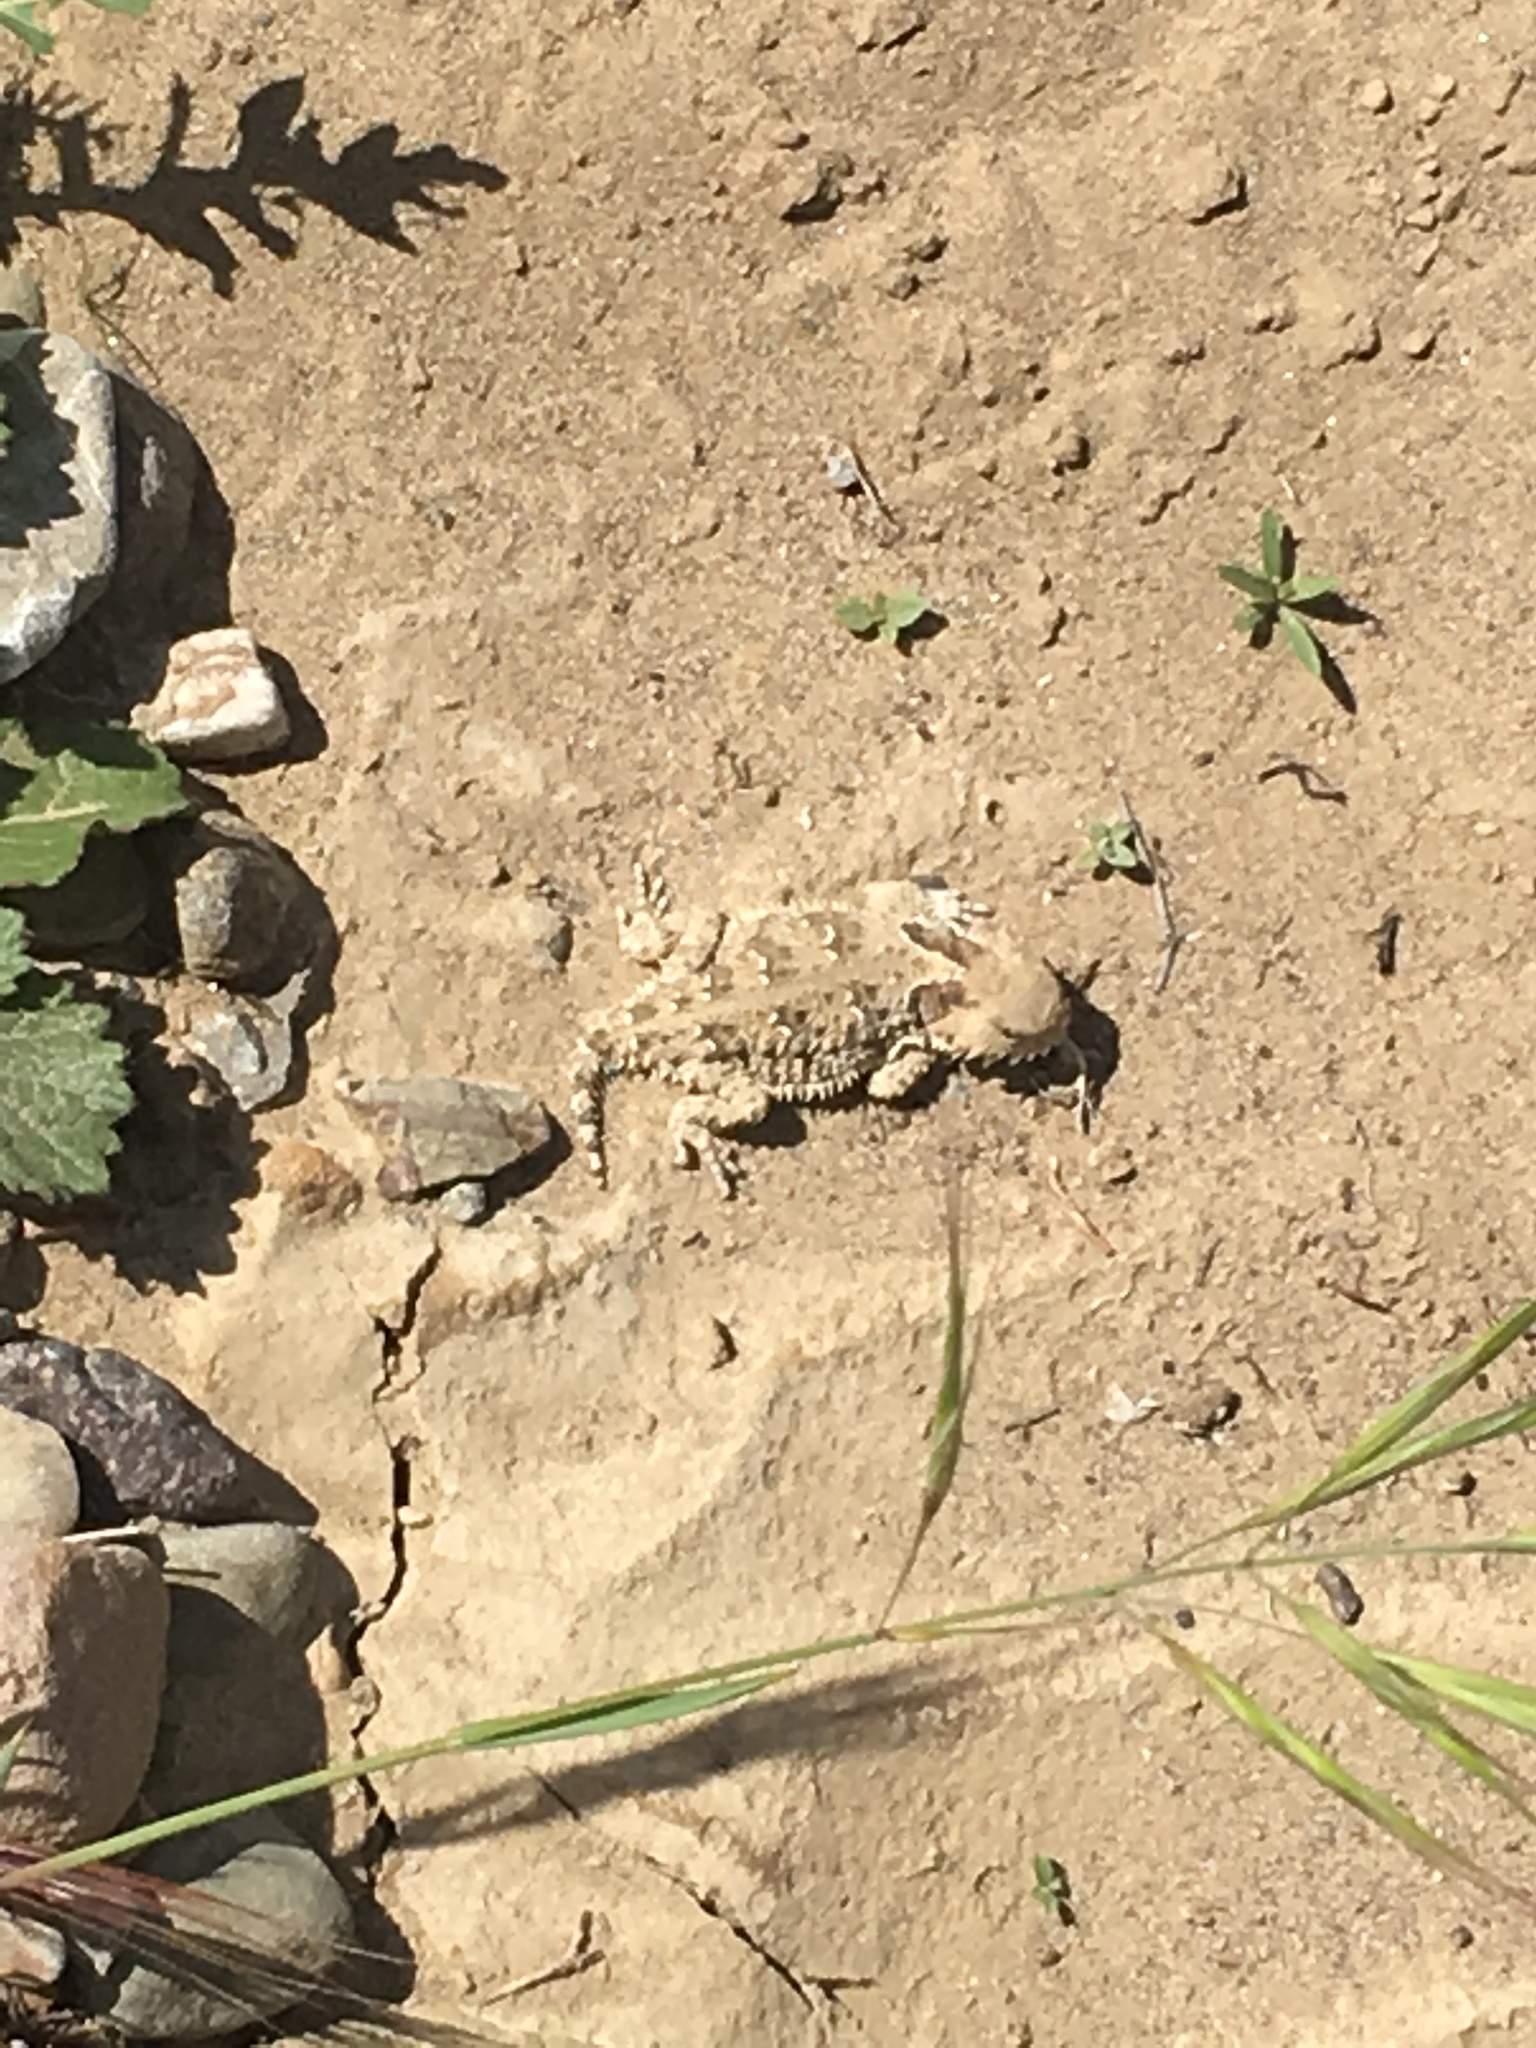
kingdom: Animalia
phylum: Chordata
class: Squamata
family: Phrynosomatidae
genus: Phrynosoma
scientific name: Phrynosoma blainvillii
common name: San diego horned lizard
